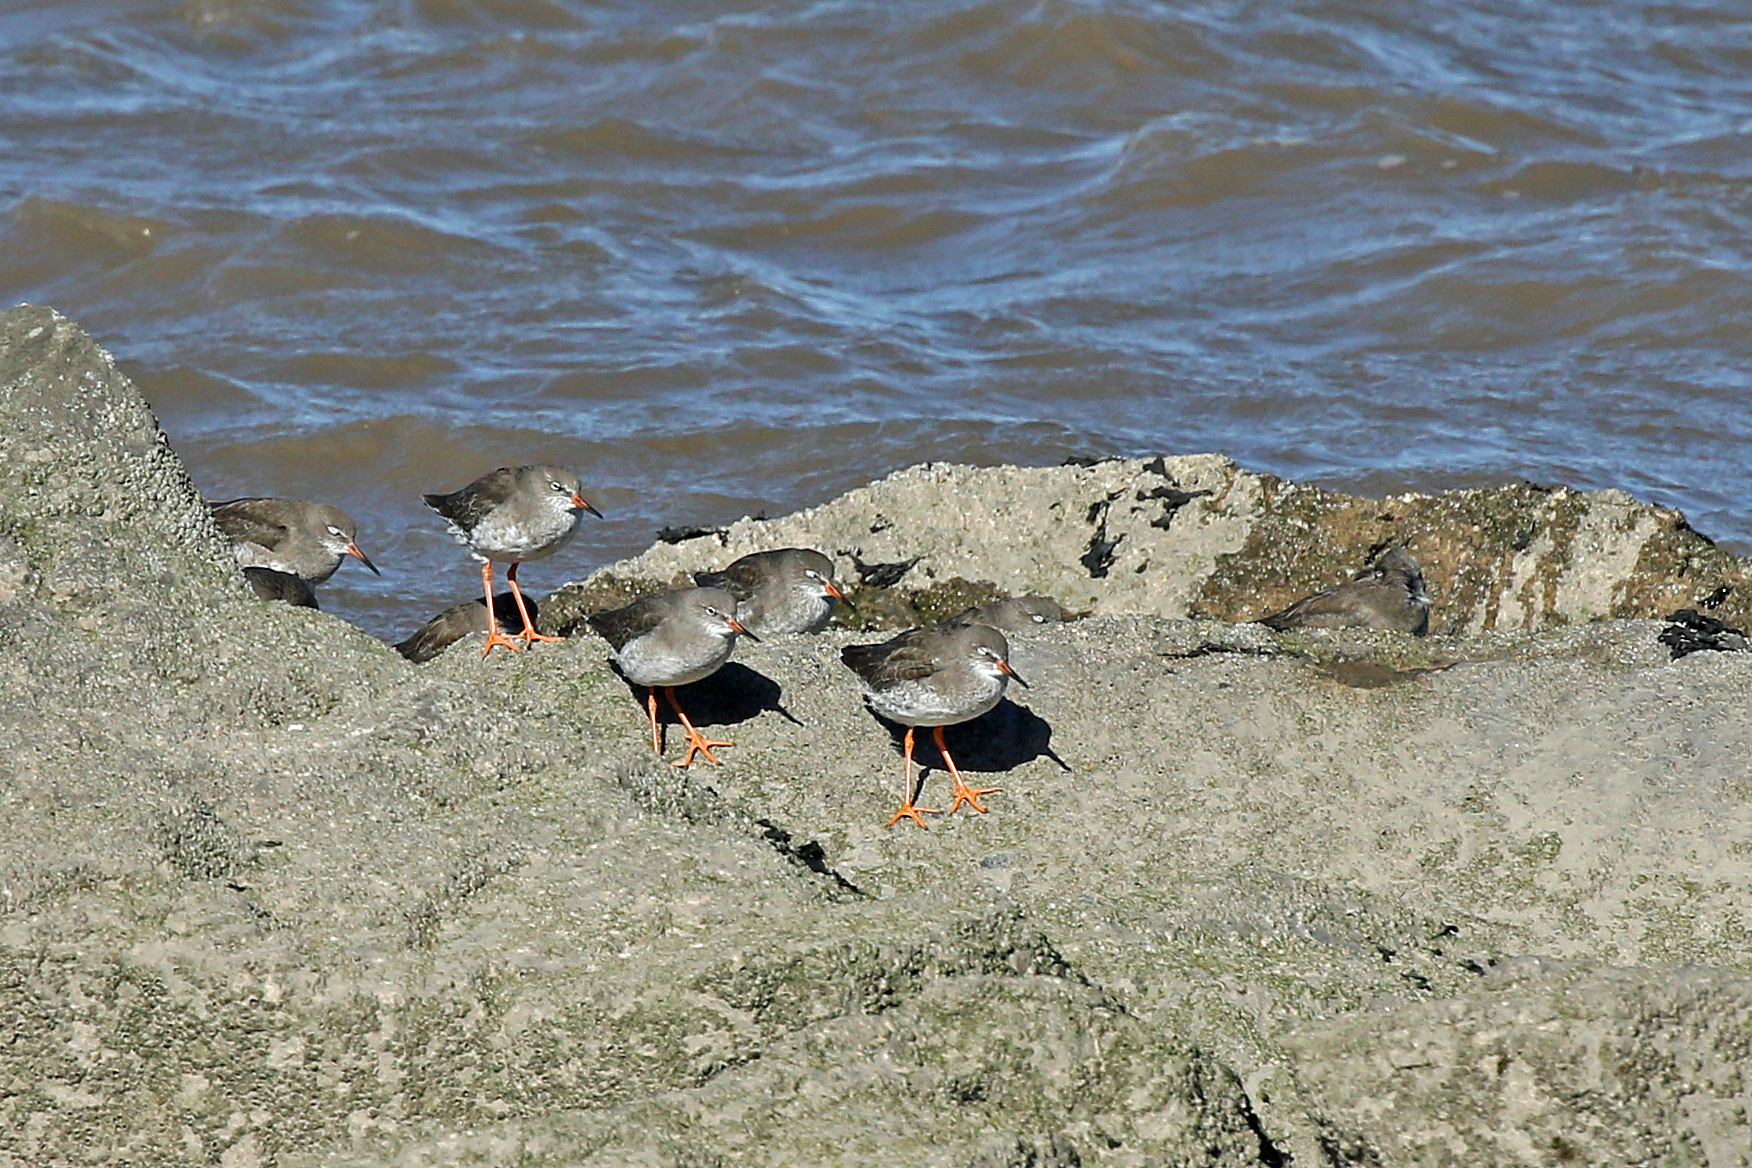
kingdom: Animalia
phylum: Chordata
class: Aves
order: Charadriiformes
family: Scolopacidae
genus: Tringa
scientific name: Tringa totanus
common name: Common redshank
